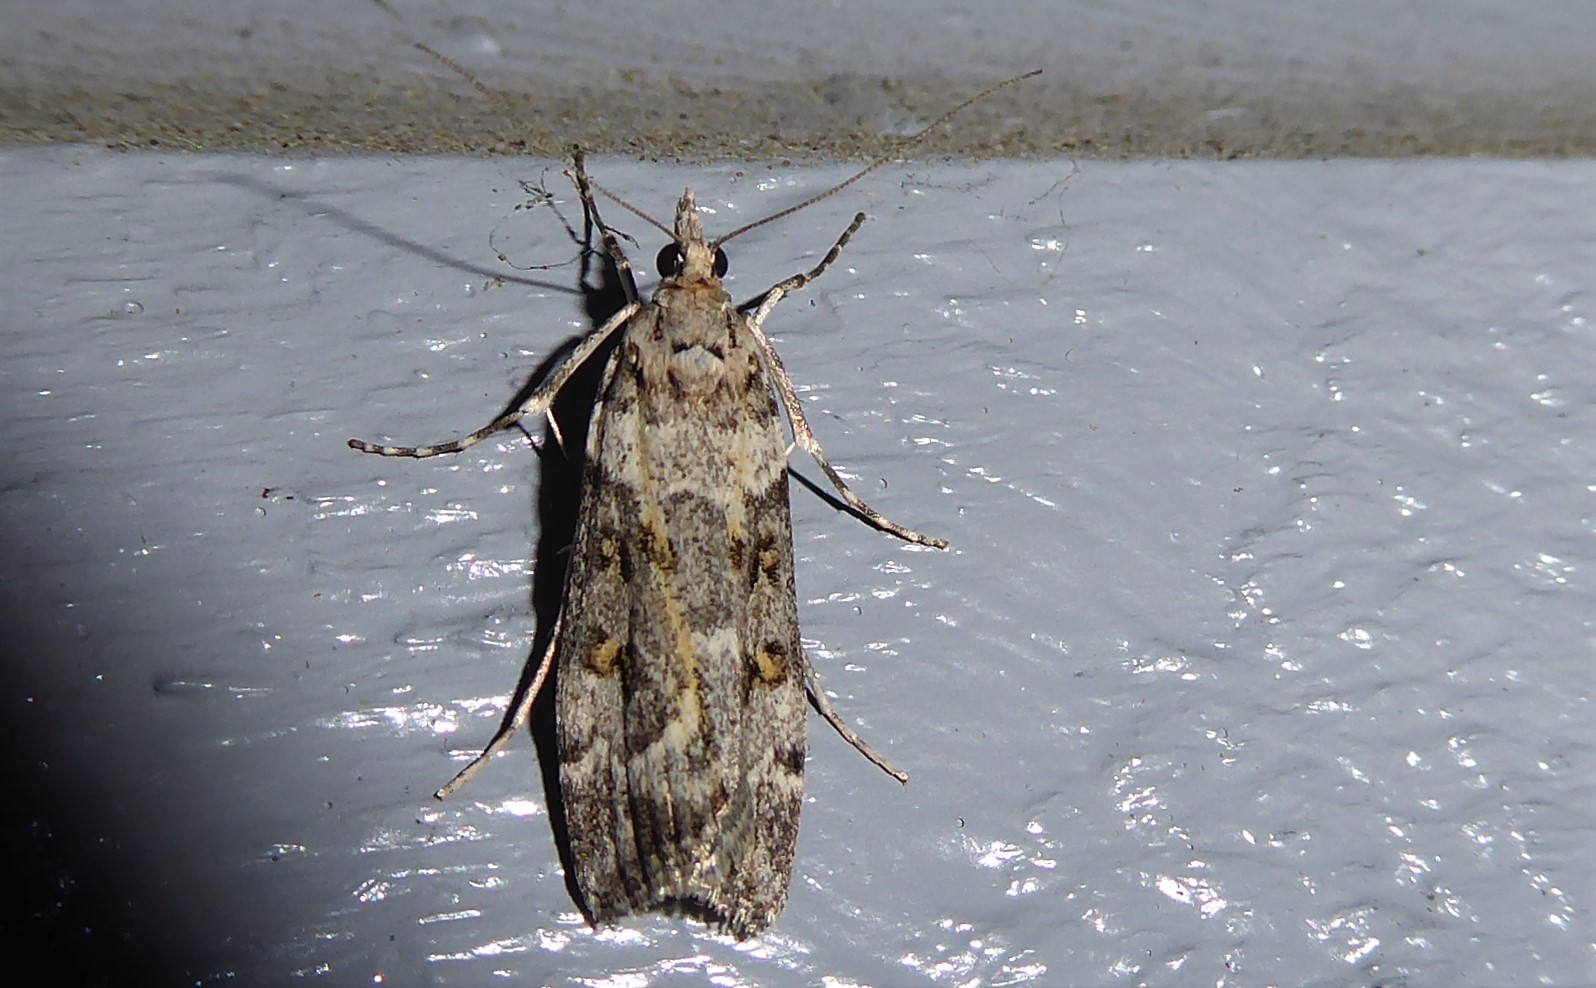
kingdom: Animalia
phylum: Arthropoda
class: Insecta
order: Lepidoptera
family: Crambidae
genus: Eudonia
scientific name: Eudonia diphtheralis
